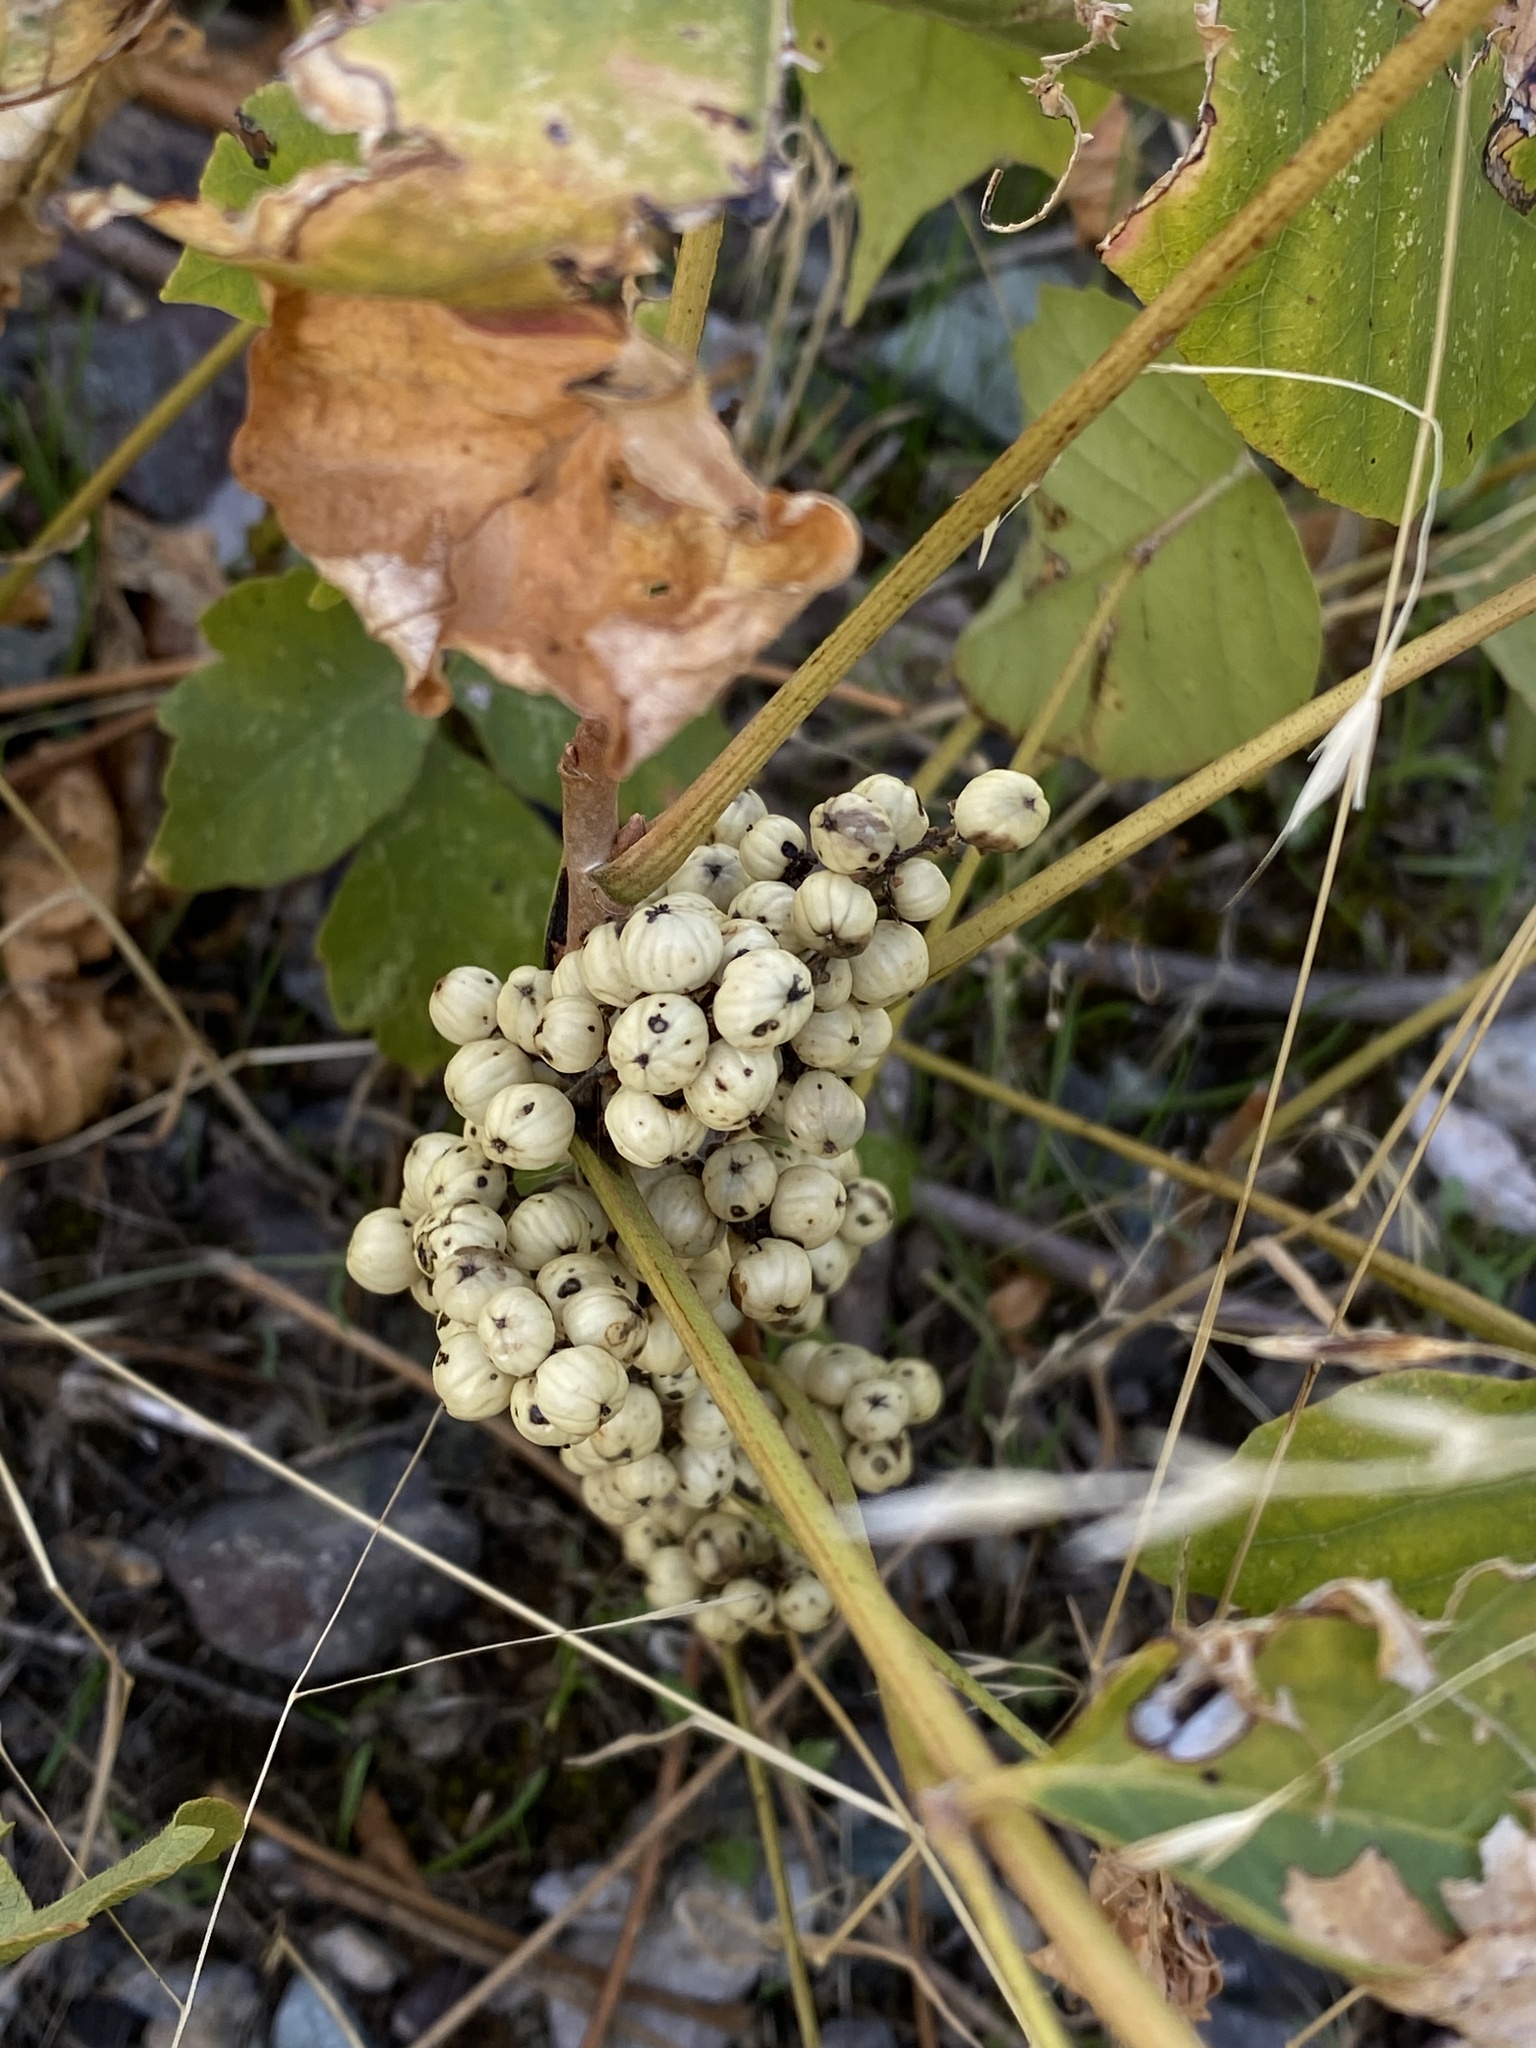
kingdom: Plantae
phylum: Tracheophyta
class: Magnoliopsida
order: Sapindales
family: Anacardiaceae
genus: Toxicodendron
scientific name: Toxicodendron rydbergii
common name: Rydberg's poison-ivy
